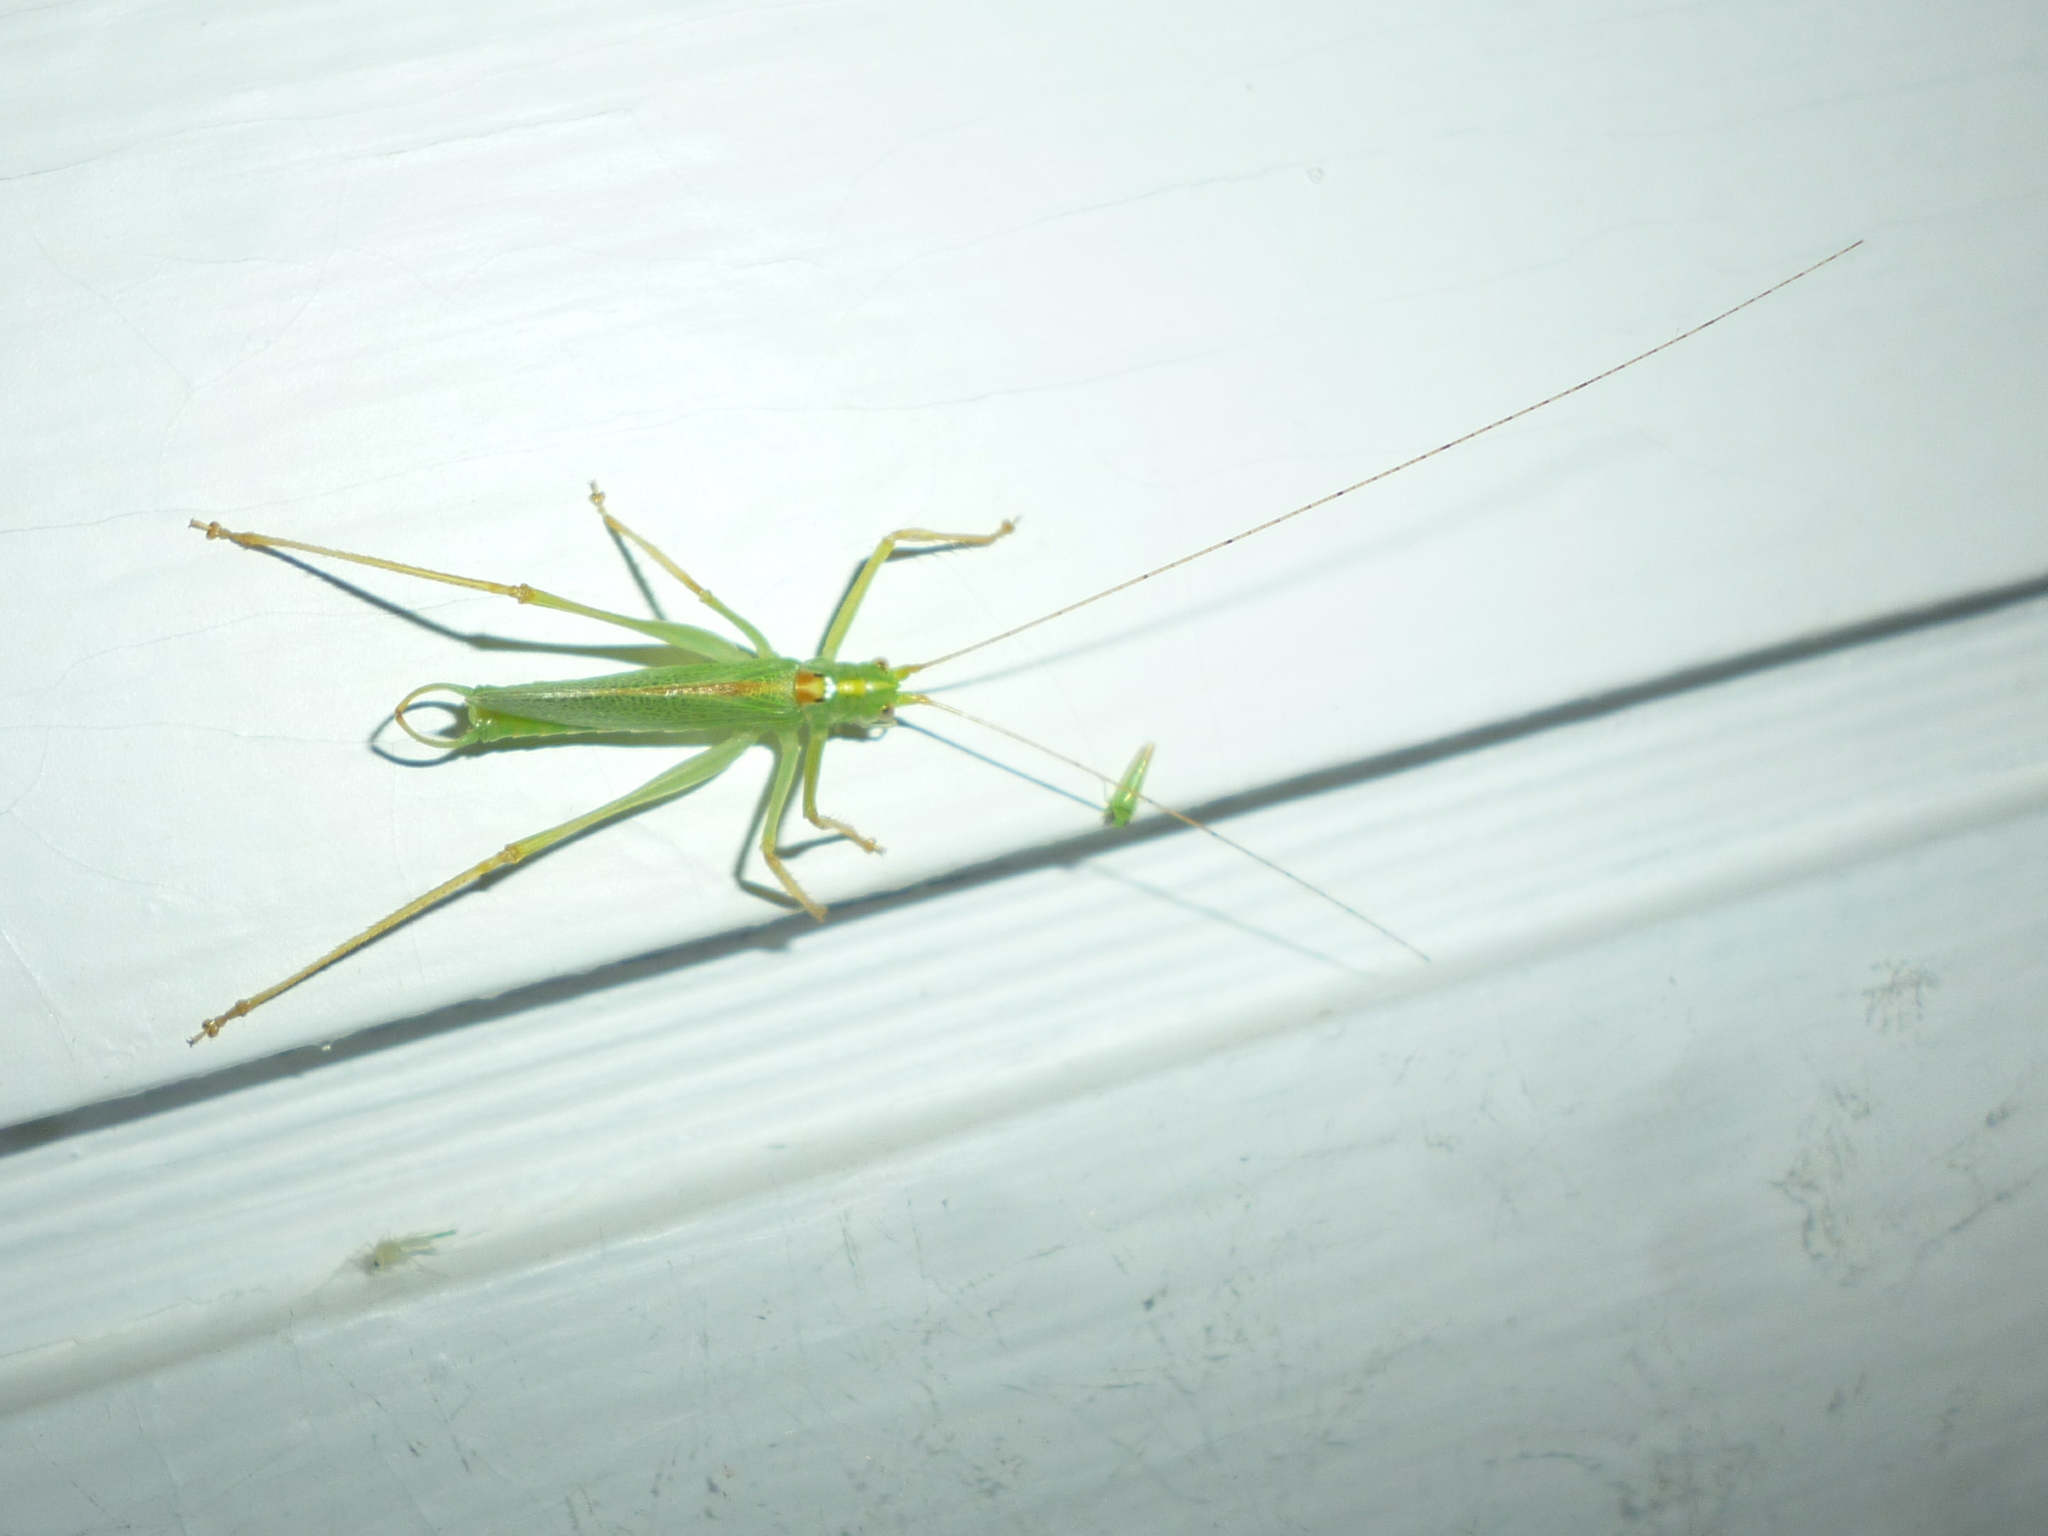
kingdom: Animalia
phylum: Arthropoda
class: Insecta
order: Orthoptera
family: Tettigoniidae
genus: Meconema
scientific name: Meconema thalassinum
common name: Oak bush-cricket
